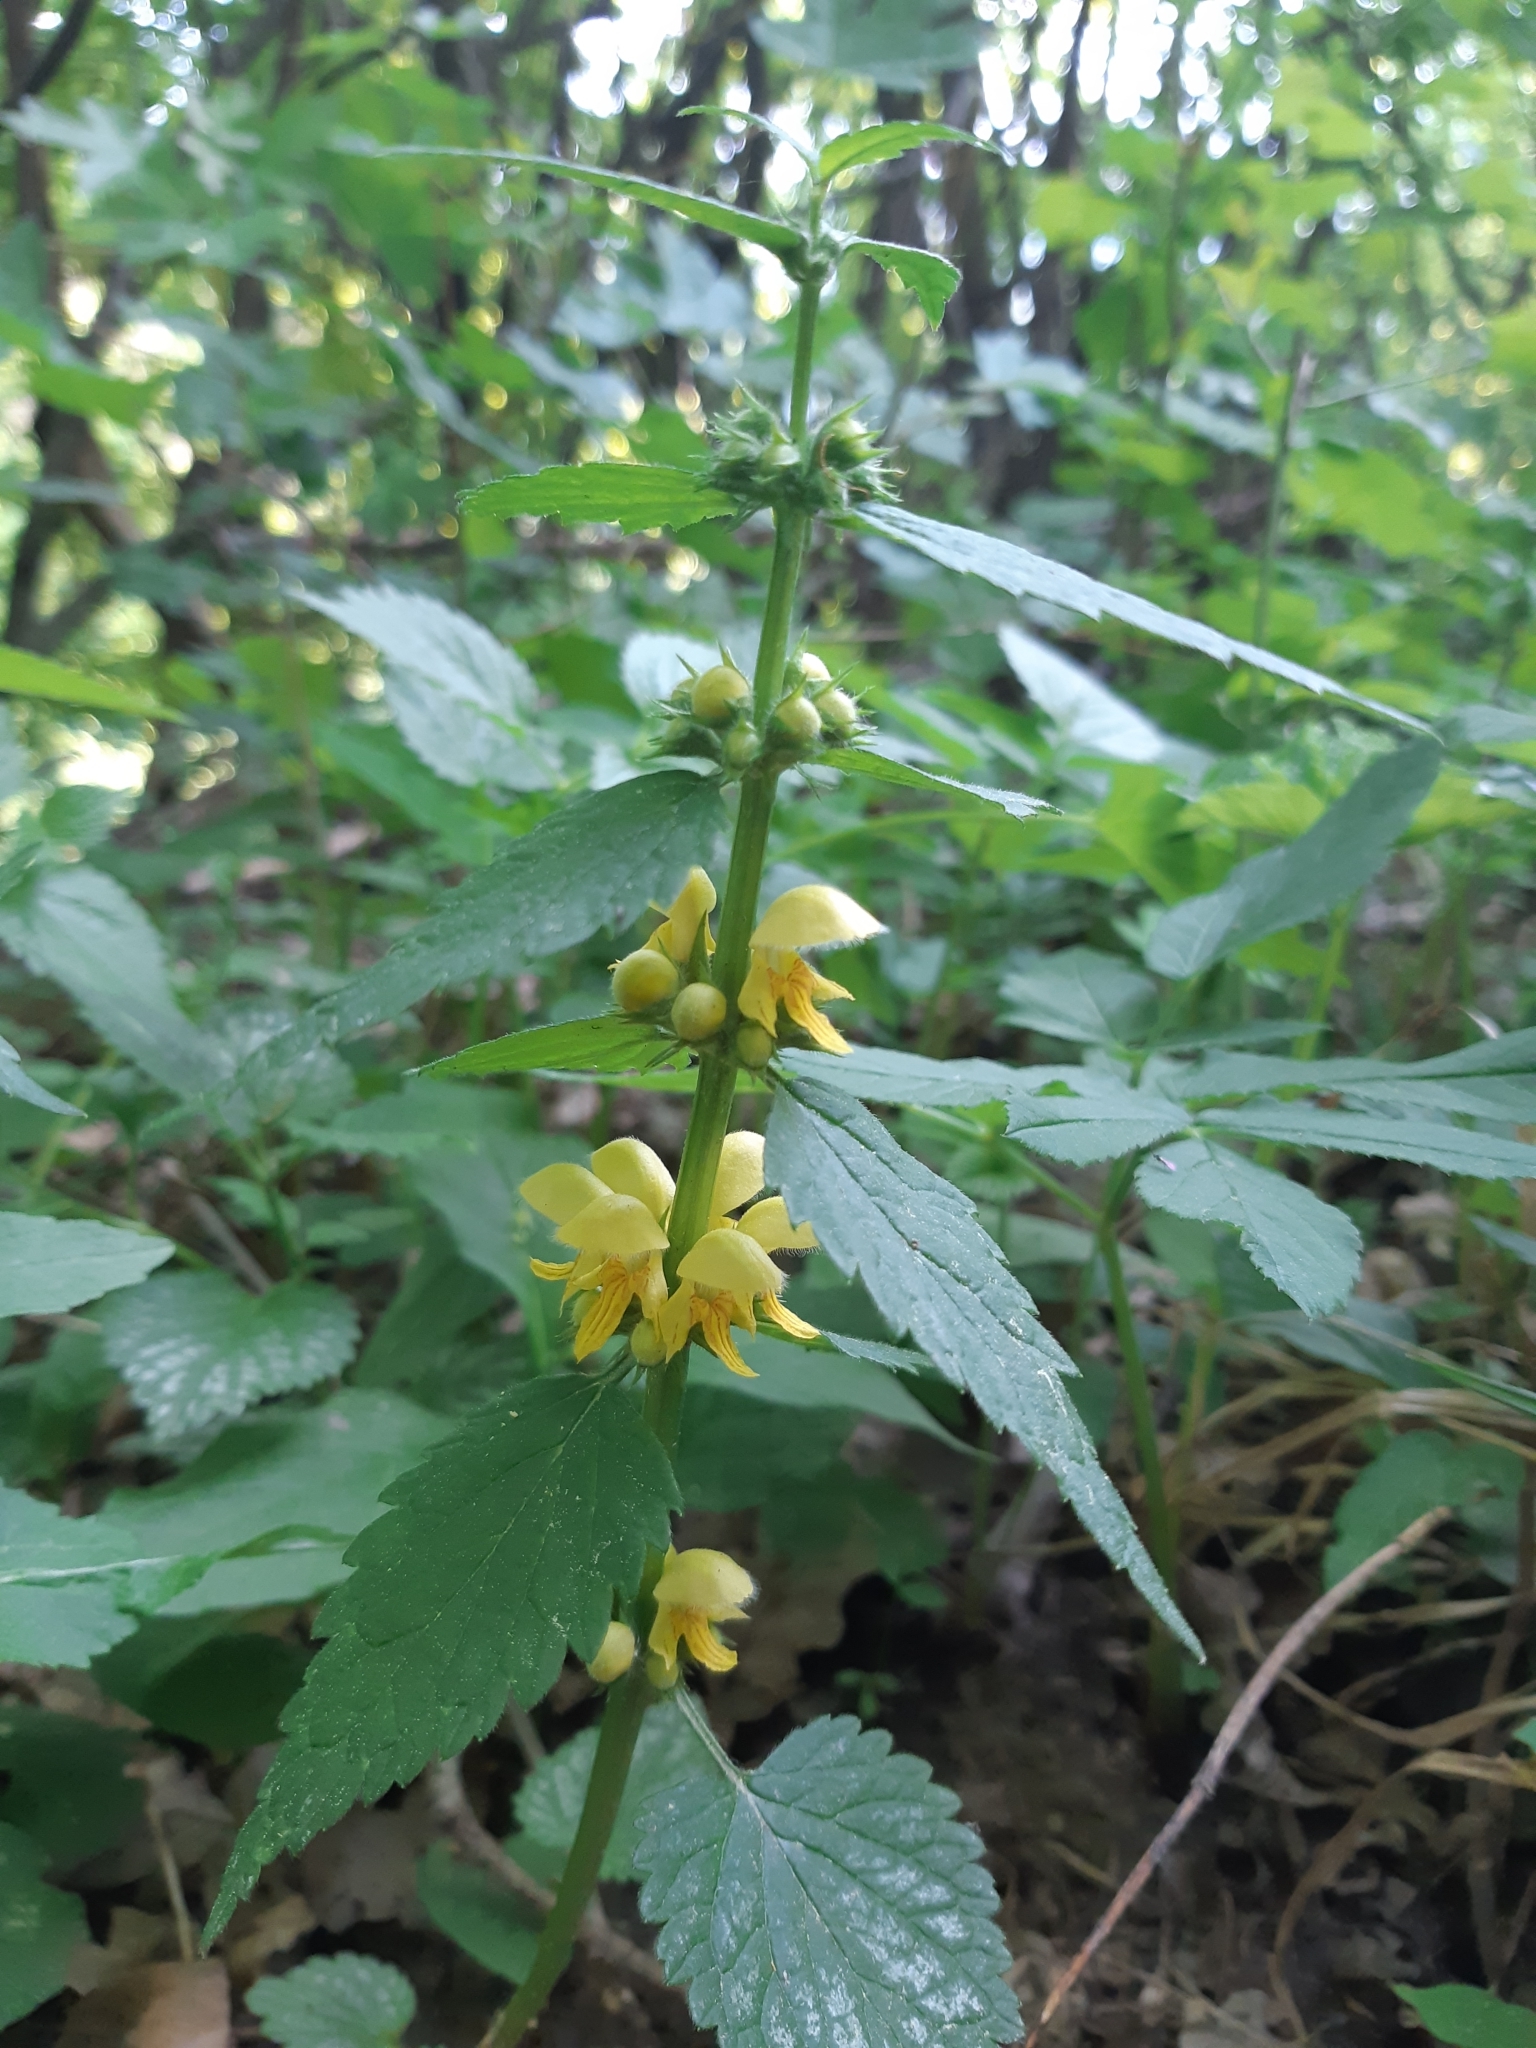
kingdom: Plantae
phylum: Tracheophyta
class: Magnoliopsida
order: Lamiales
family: Lamiaceae
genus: Lamium
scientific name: Lamium galeobdolon
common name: Yellow archangel
